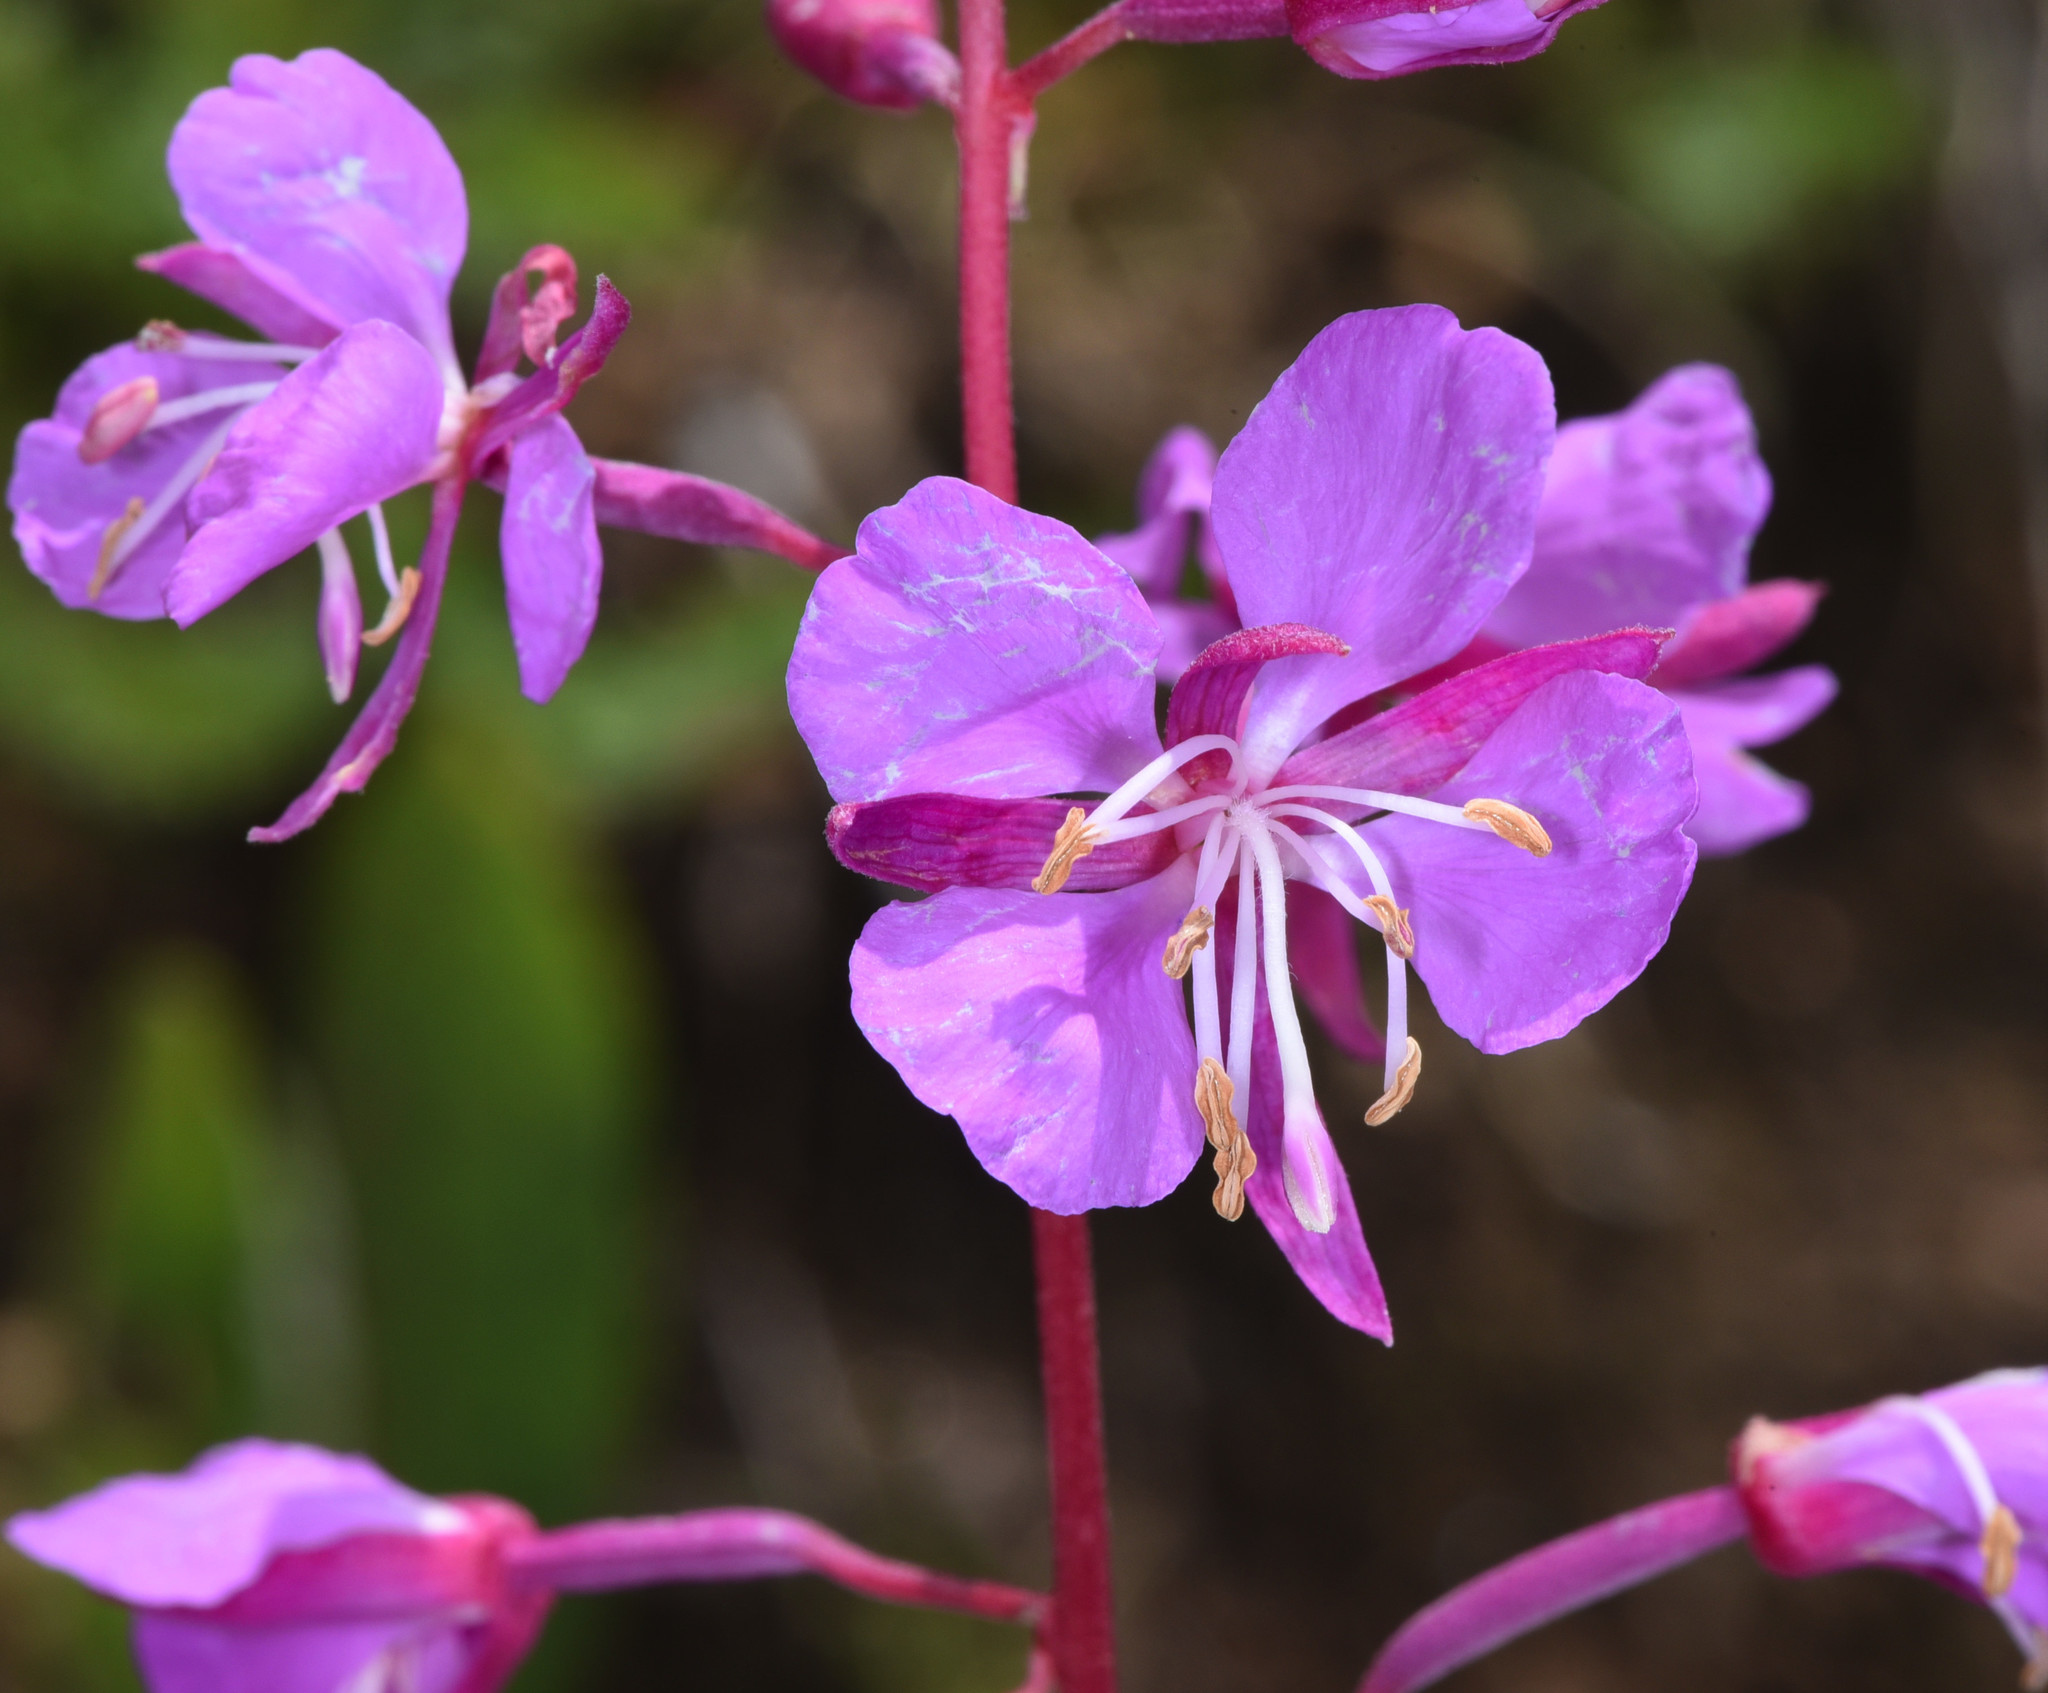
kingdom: Plantae
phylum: Tracheophyta
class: Magnoliopsida
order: Myrtales
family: Onagraceae
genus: Chamaenerion
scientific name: Chamaenerion angustifolium
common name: Fireweed
